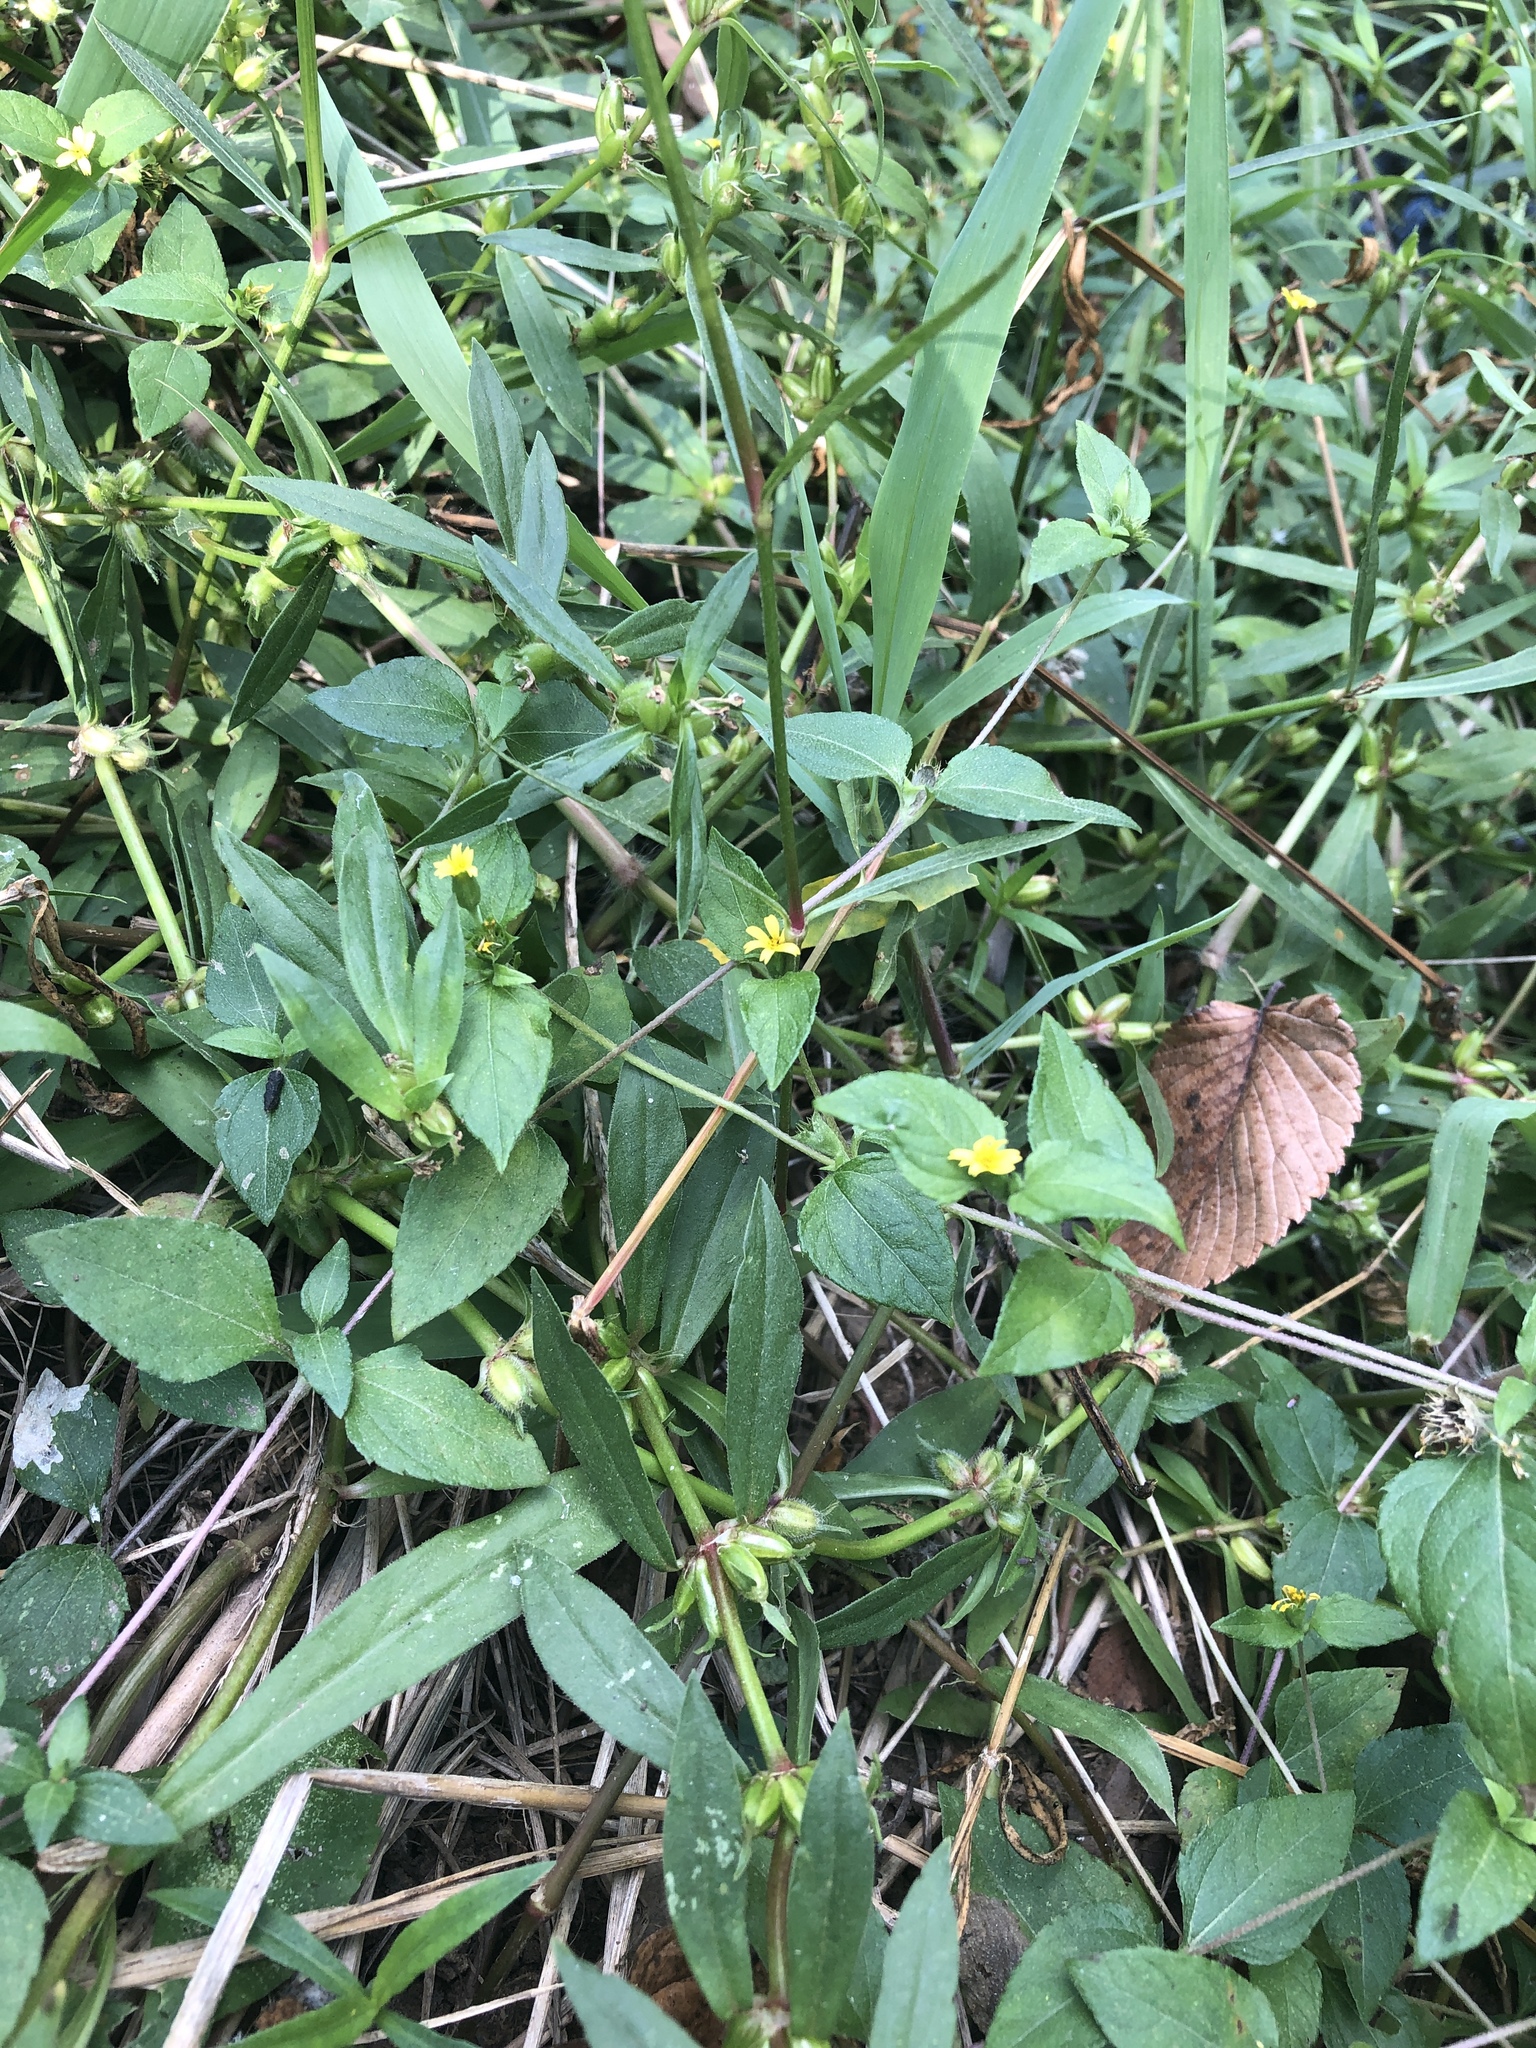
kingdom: Plantae
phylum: Tracheophyta
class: Magnoliopsida
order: Asterales
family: Asteraceae
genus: Calyptocarpus
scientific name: Calyptocarpus vialis
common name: Straggler daisy
